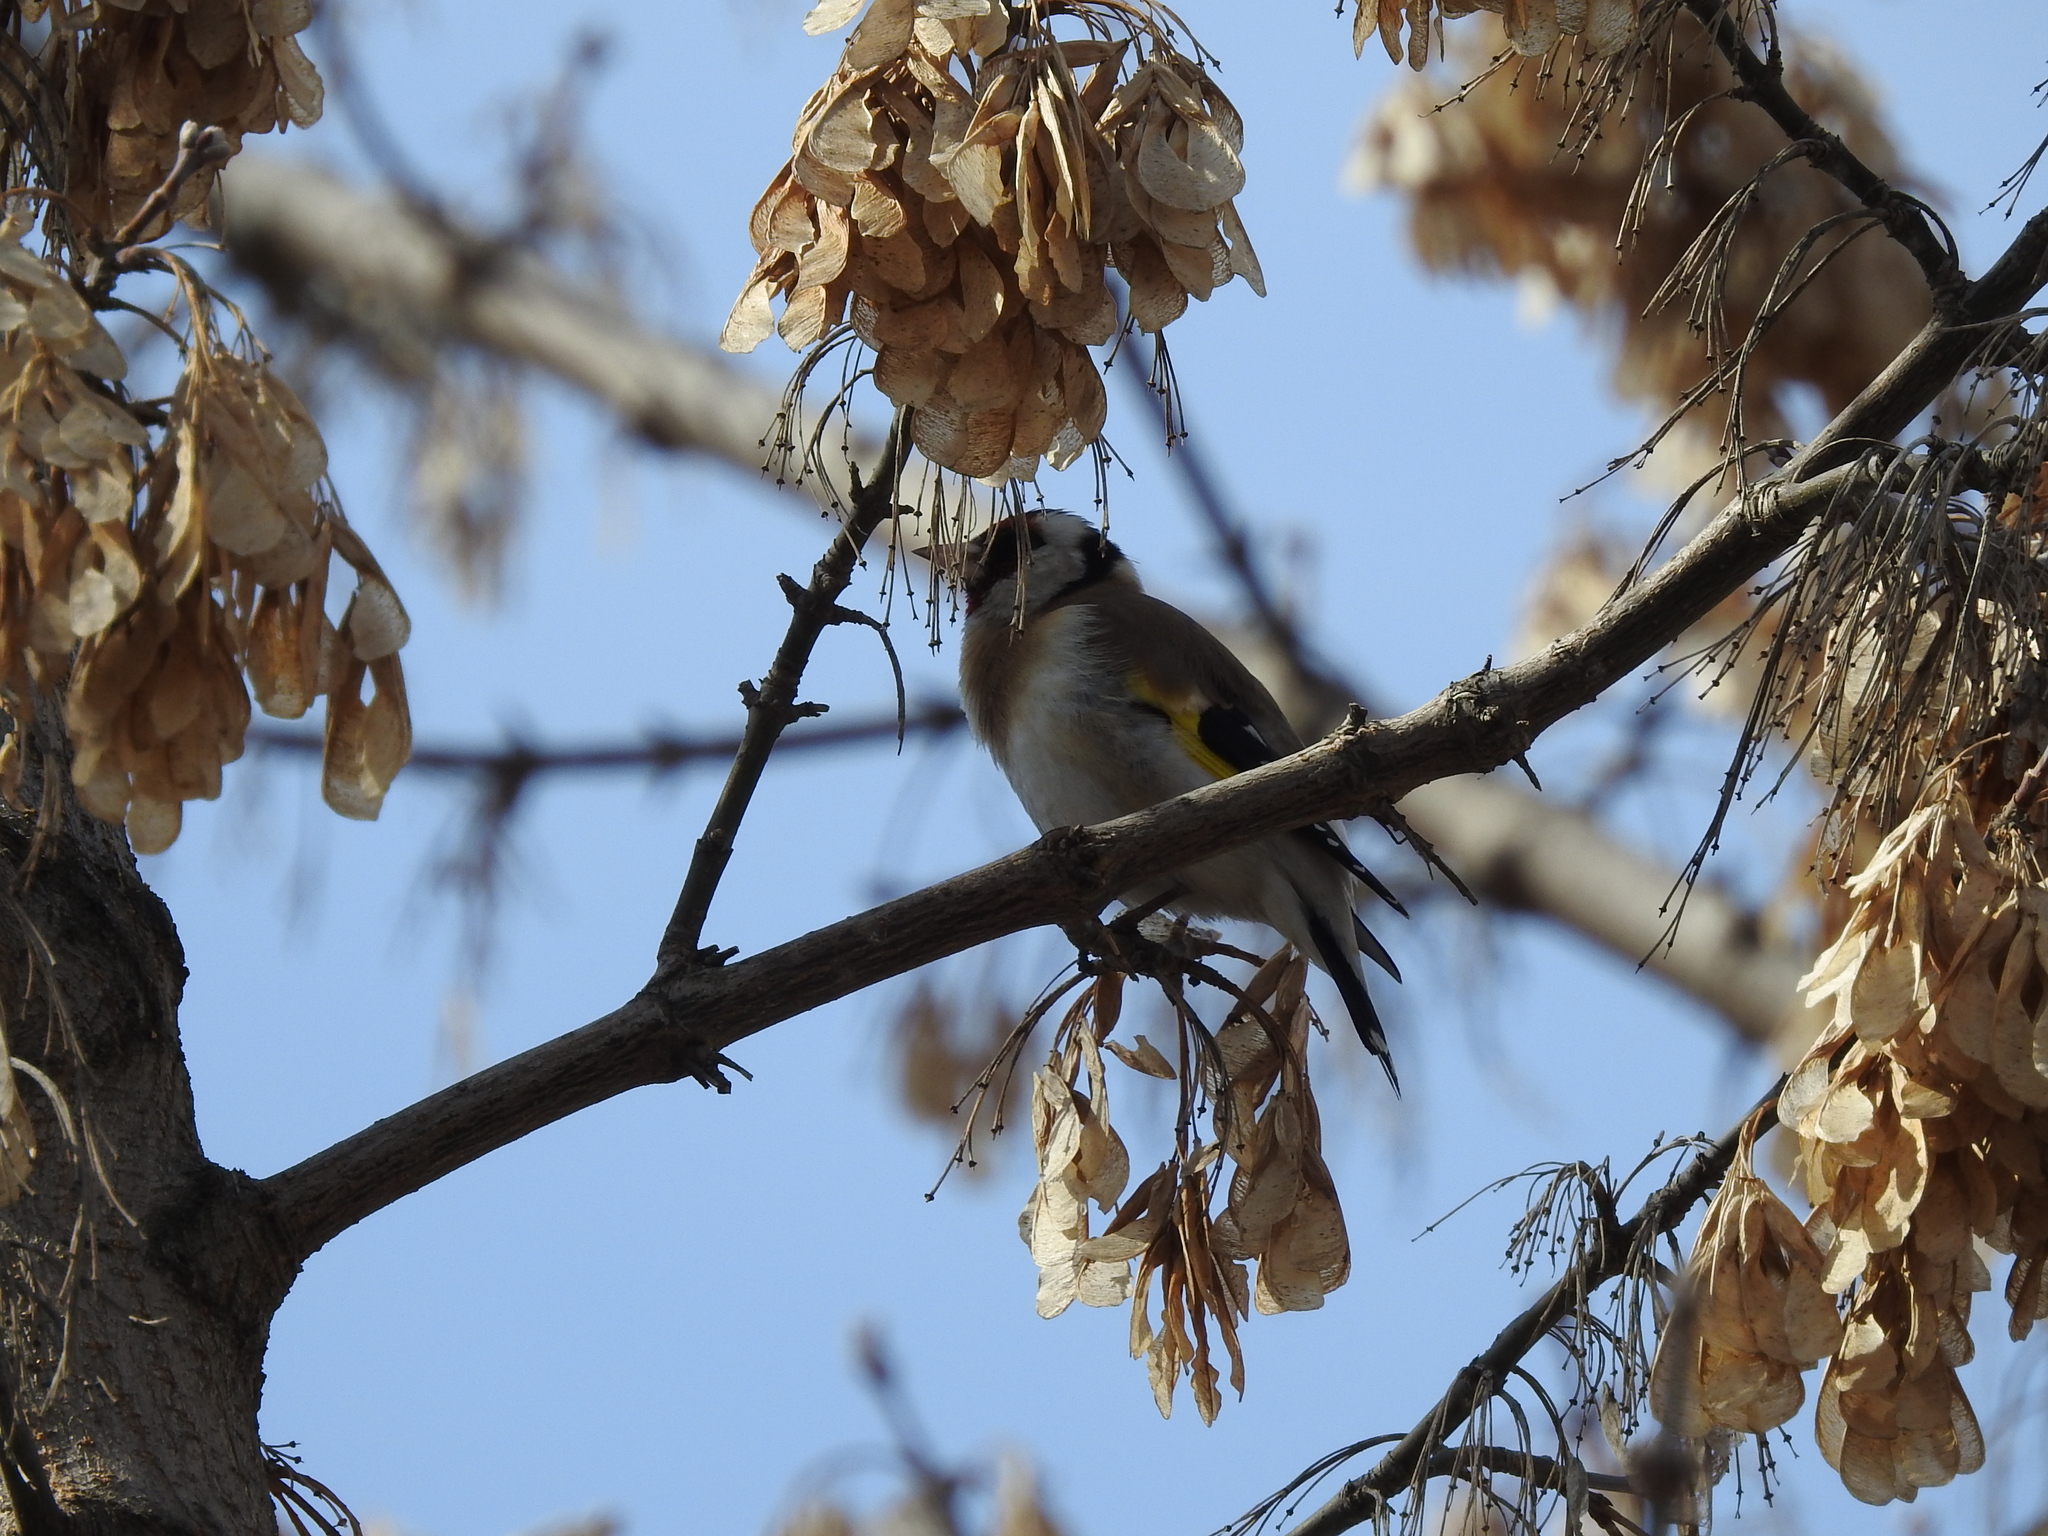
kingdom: Animalia
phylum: Chordata
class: Aves
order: Passeriformes
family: Fringillidae
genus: Carduelis
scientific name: Carduelis carduelis
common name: European goldfinch
